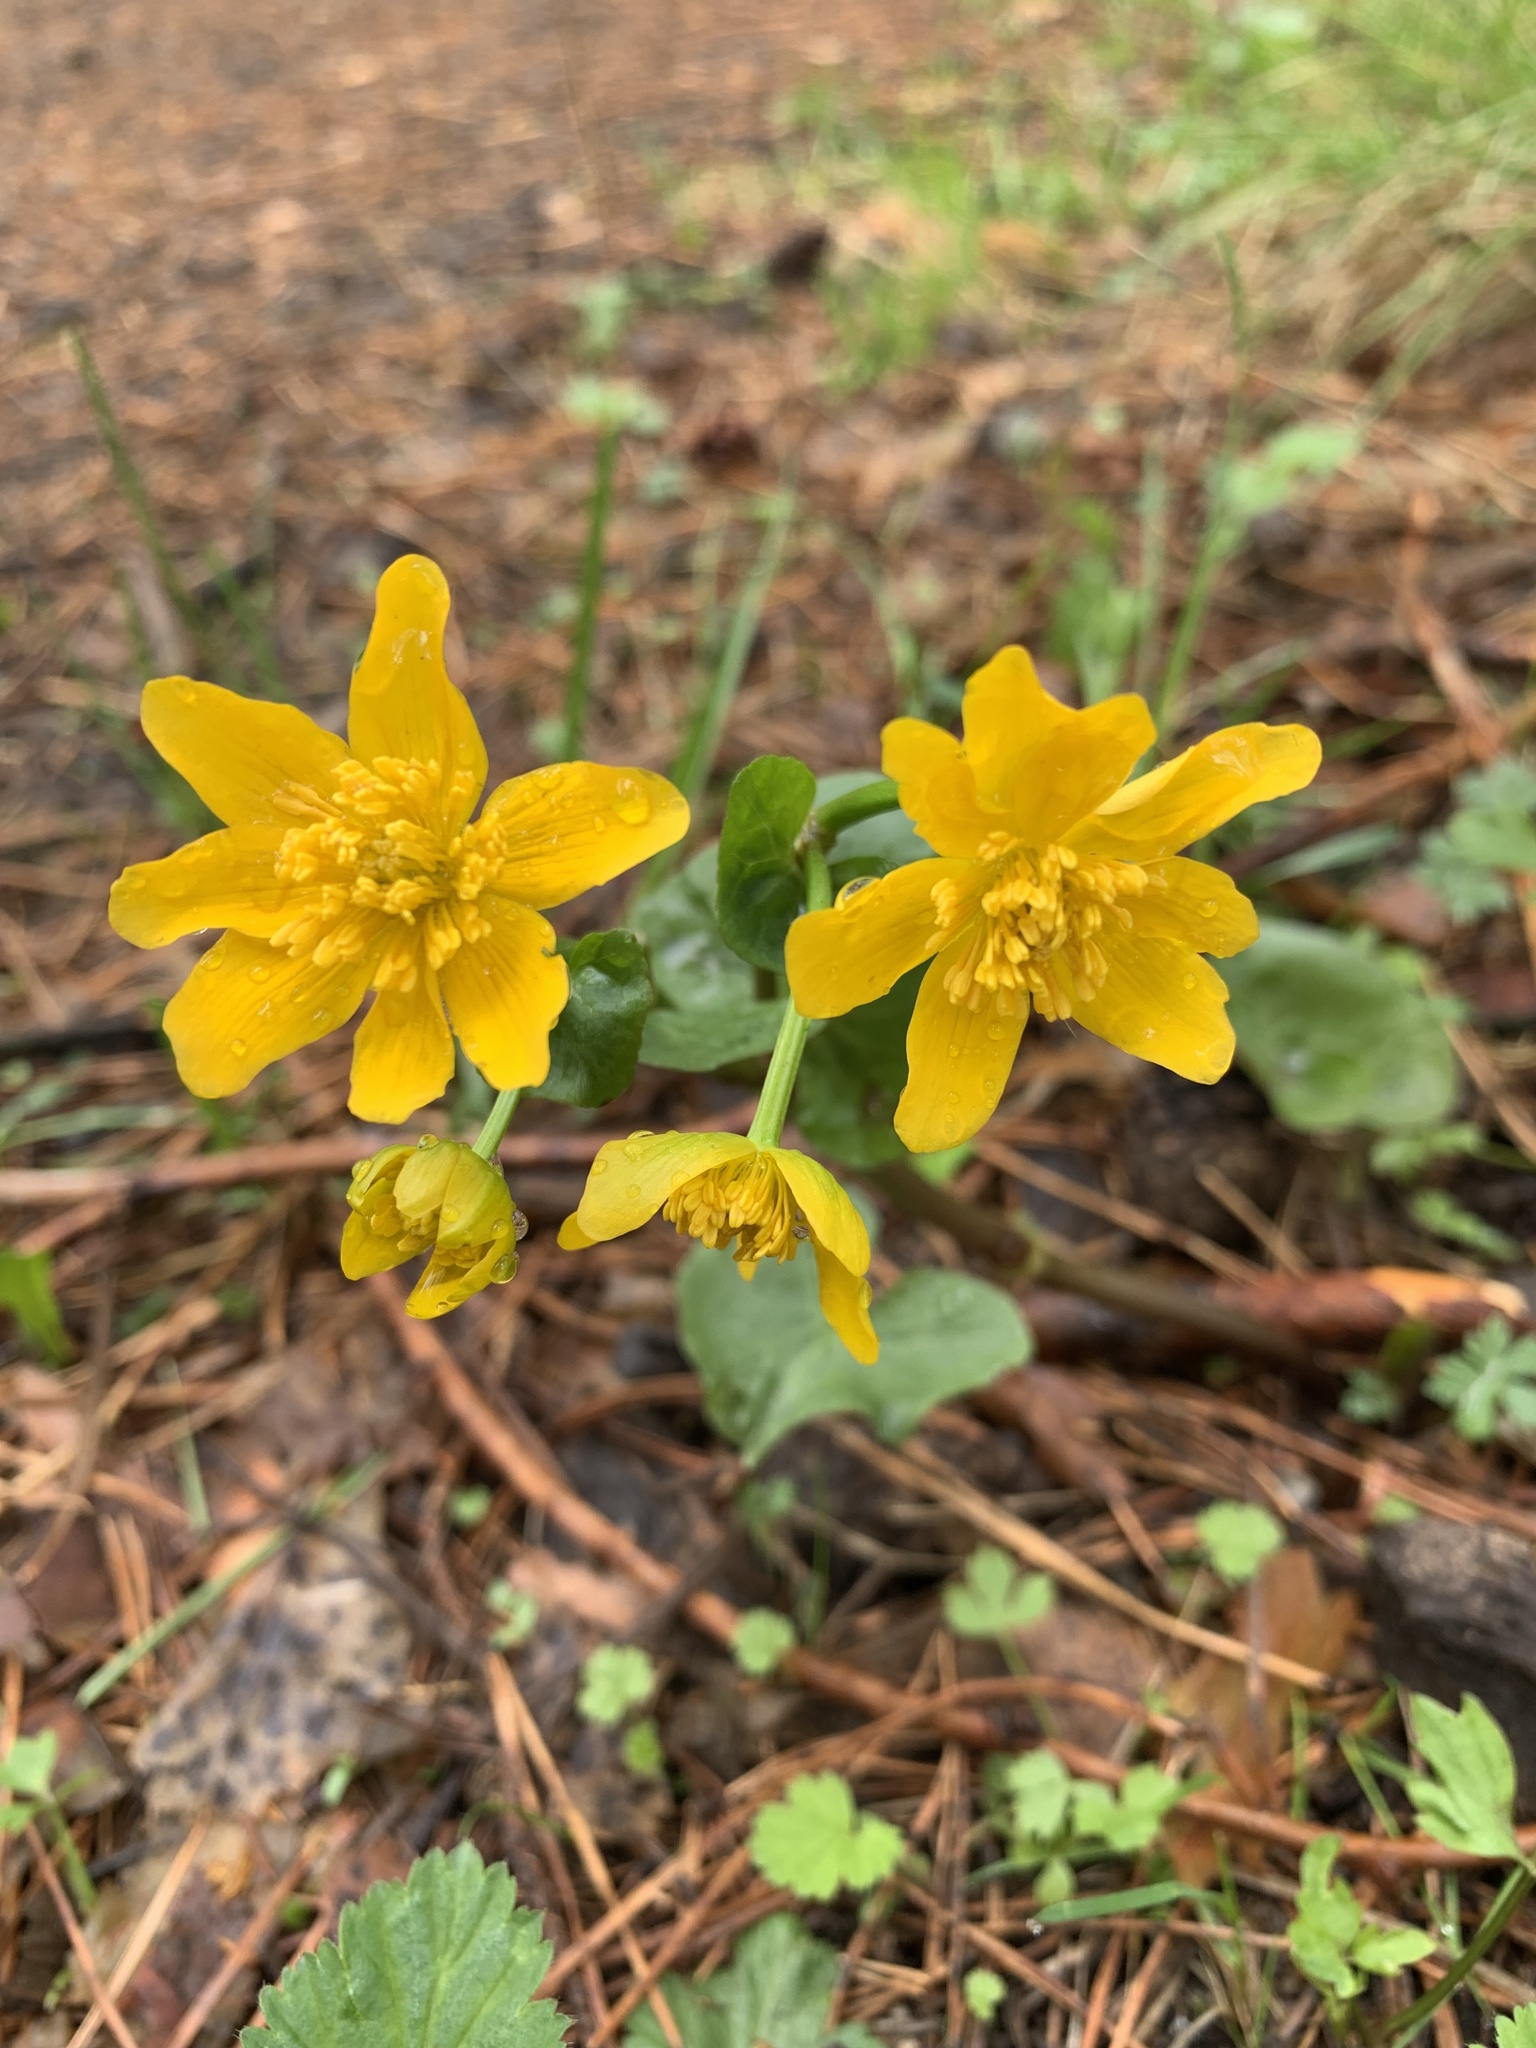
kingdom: Plantae
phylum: Tracheophyta
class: Magnoliopsida
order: Ranunculales
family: Ranunculaceae
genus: Caltha
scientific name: Caltha palustris
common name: Marsh marigold
